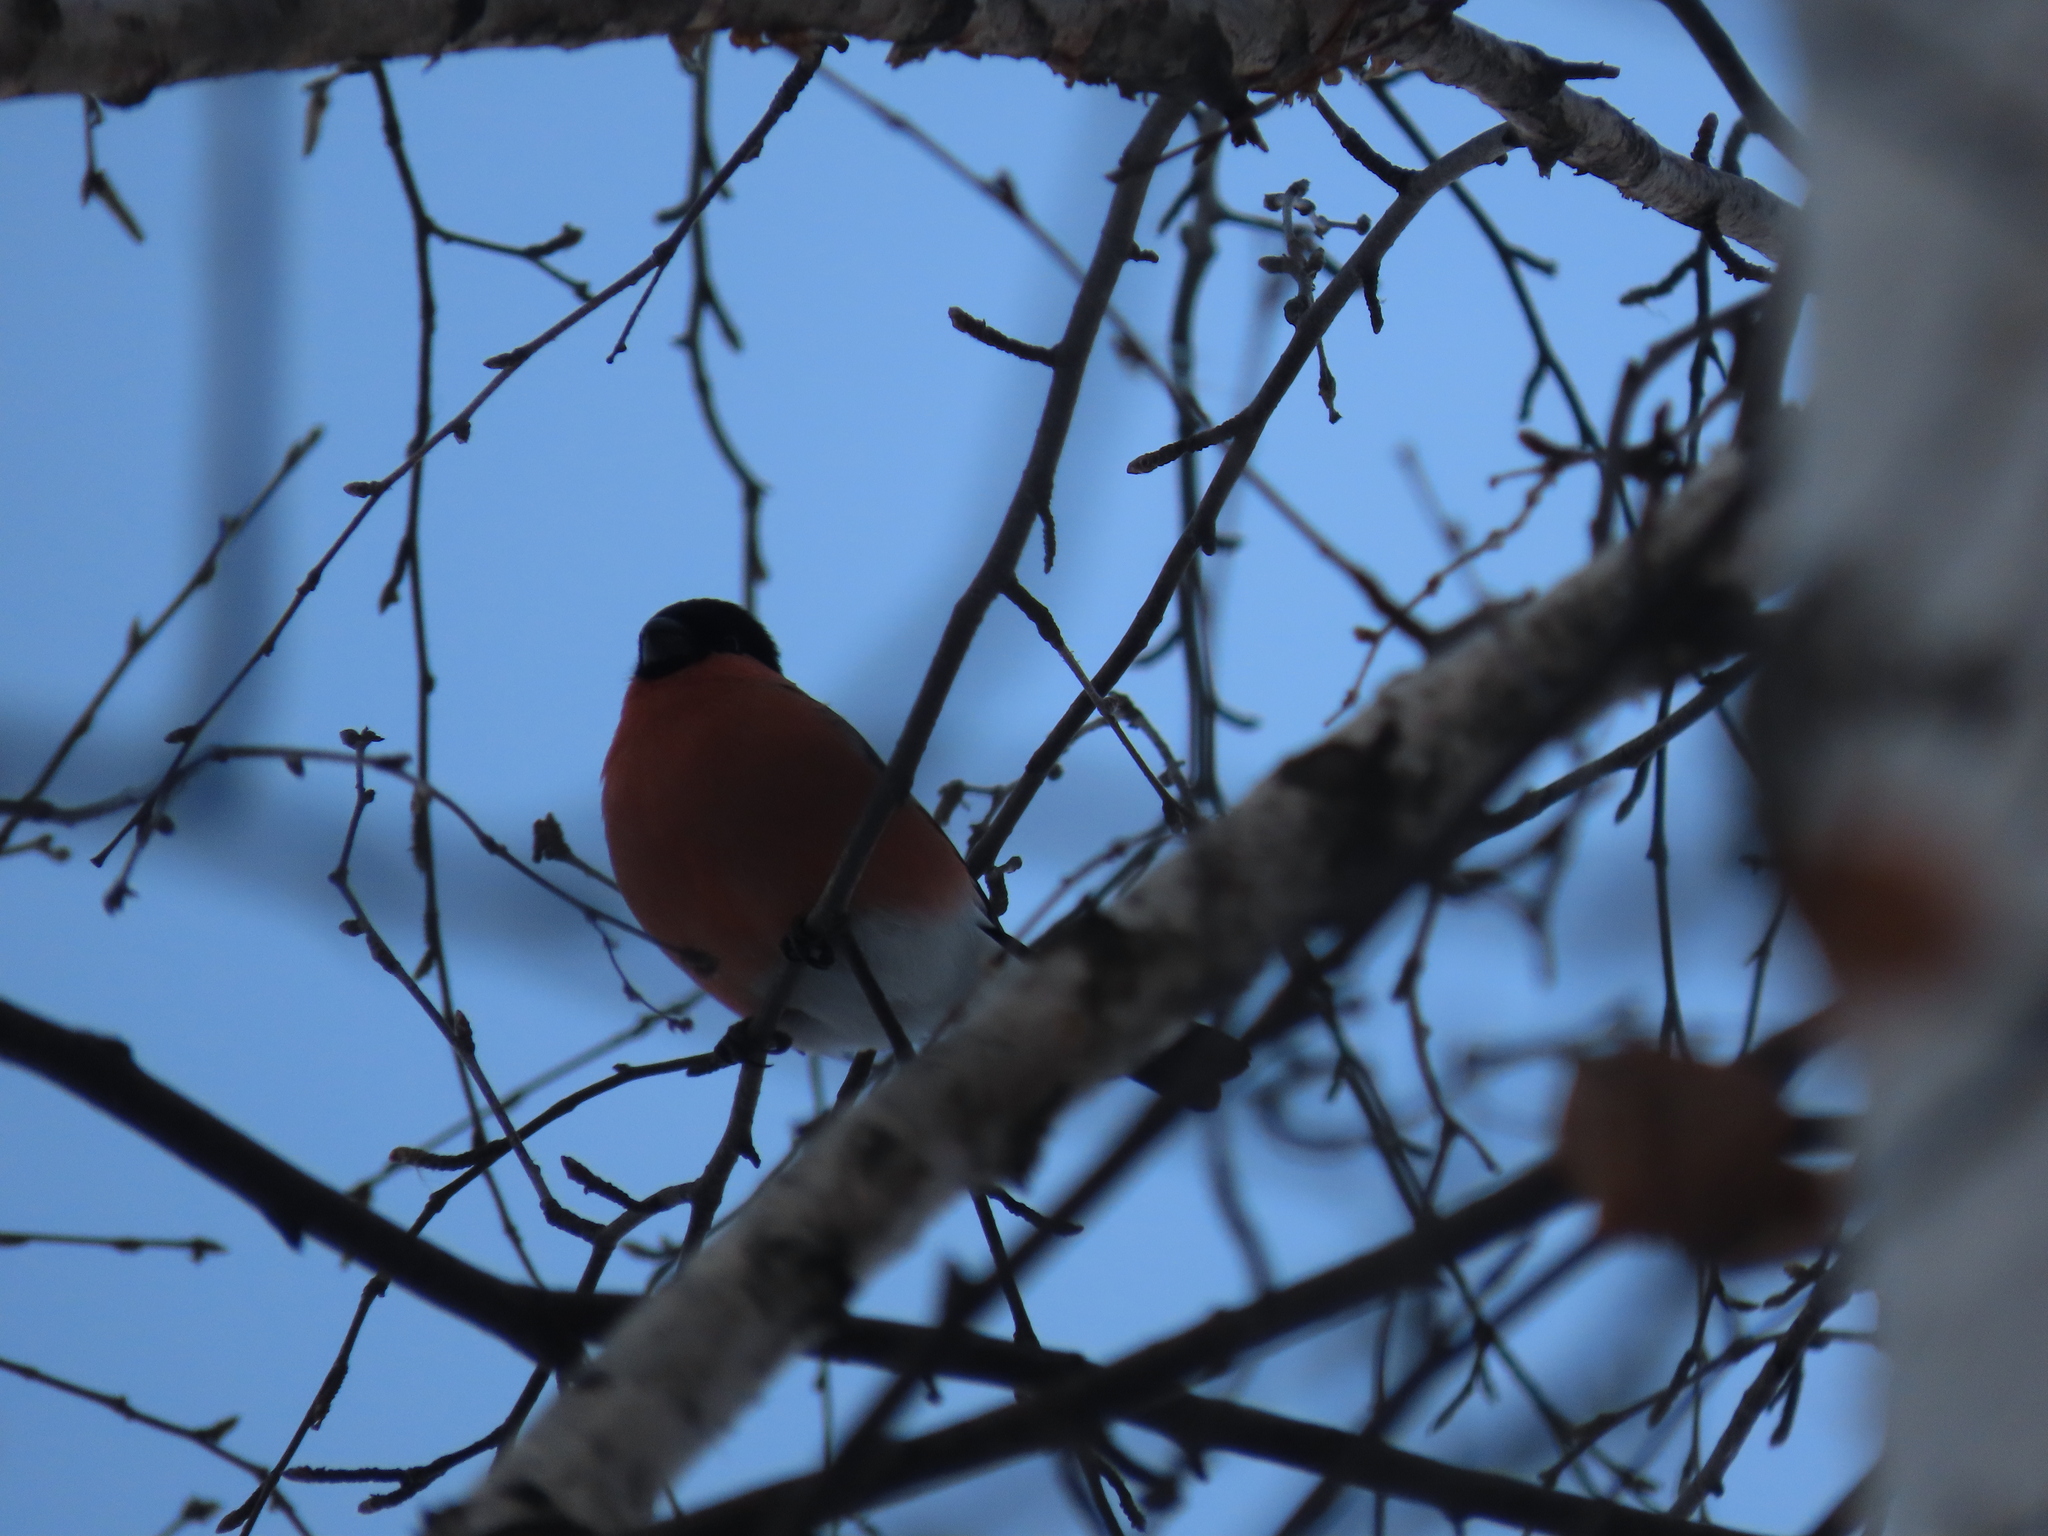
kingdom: Animalia
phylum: Chordata
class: Aves
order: Passeriformes
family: Fringillidae
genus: Pyrrhula
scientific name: Pyrrhula pyrrhula
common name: Eurasian bullfinch
